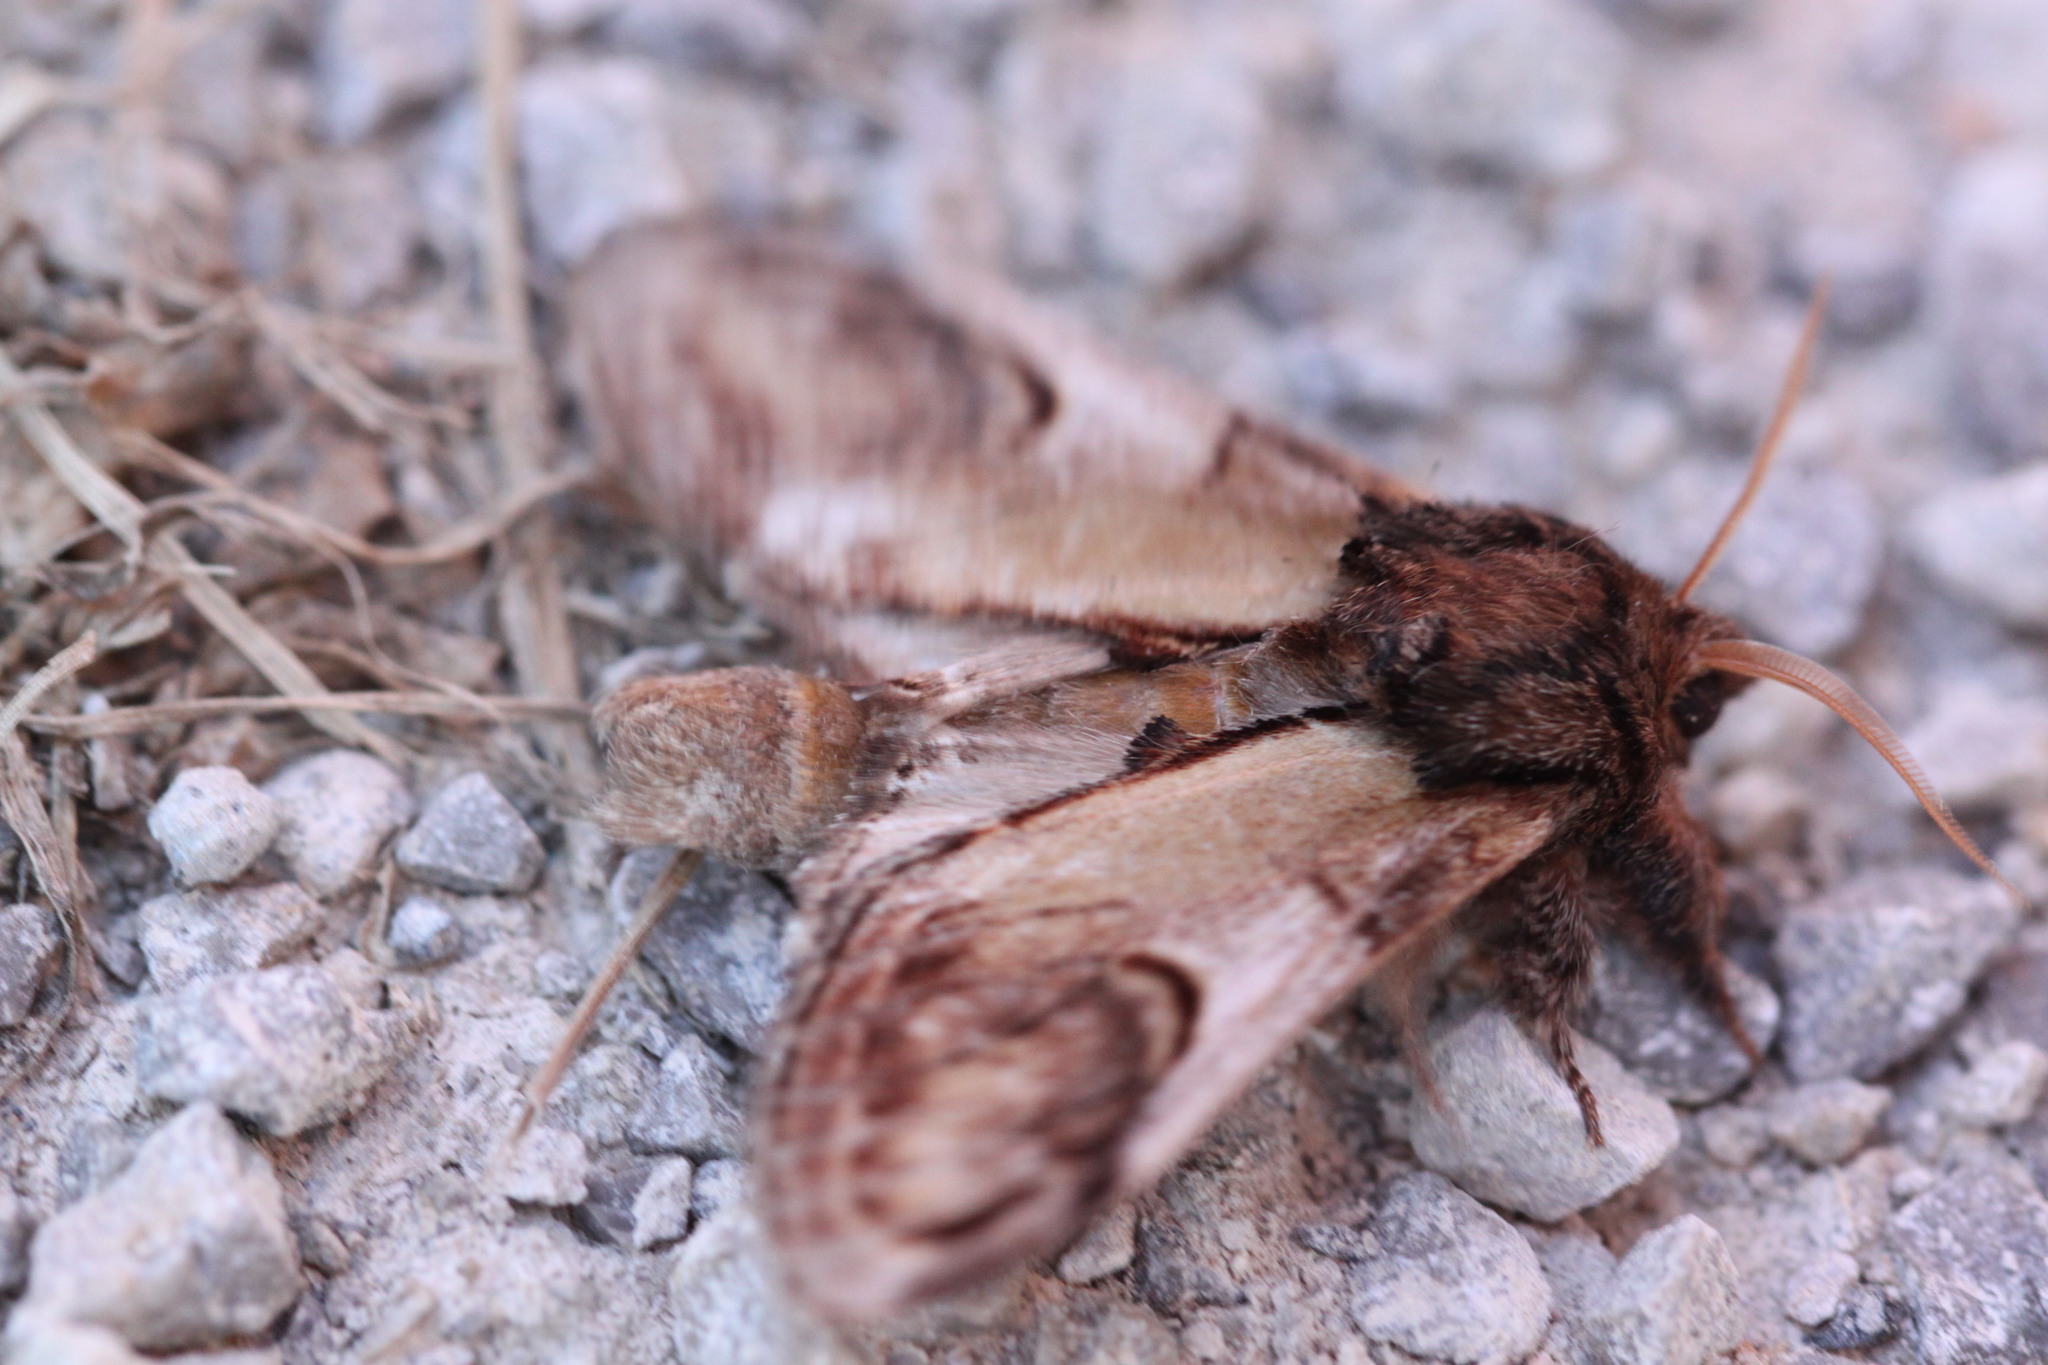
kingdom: Animalia
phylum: Arthropoda
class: Insecta
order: Lepidoptera
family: Notodontidae
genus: Notodonta
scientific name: Notodonta ziczac
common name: Pebble prominent
